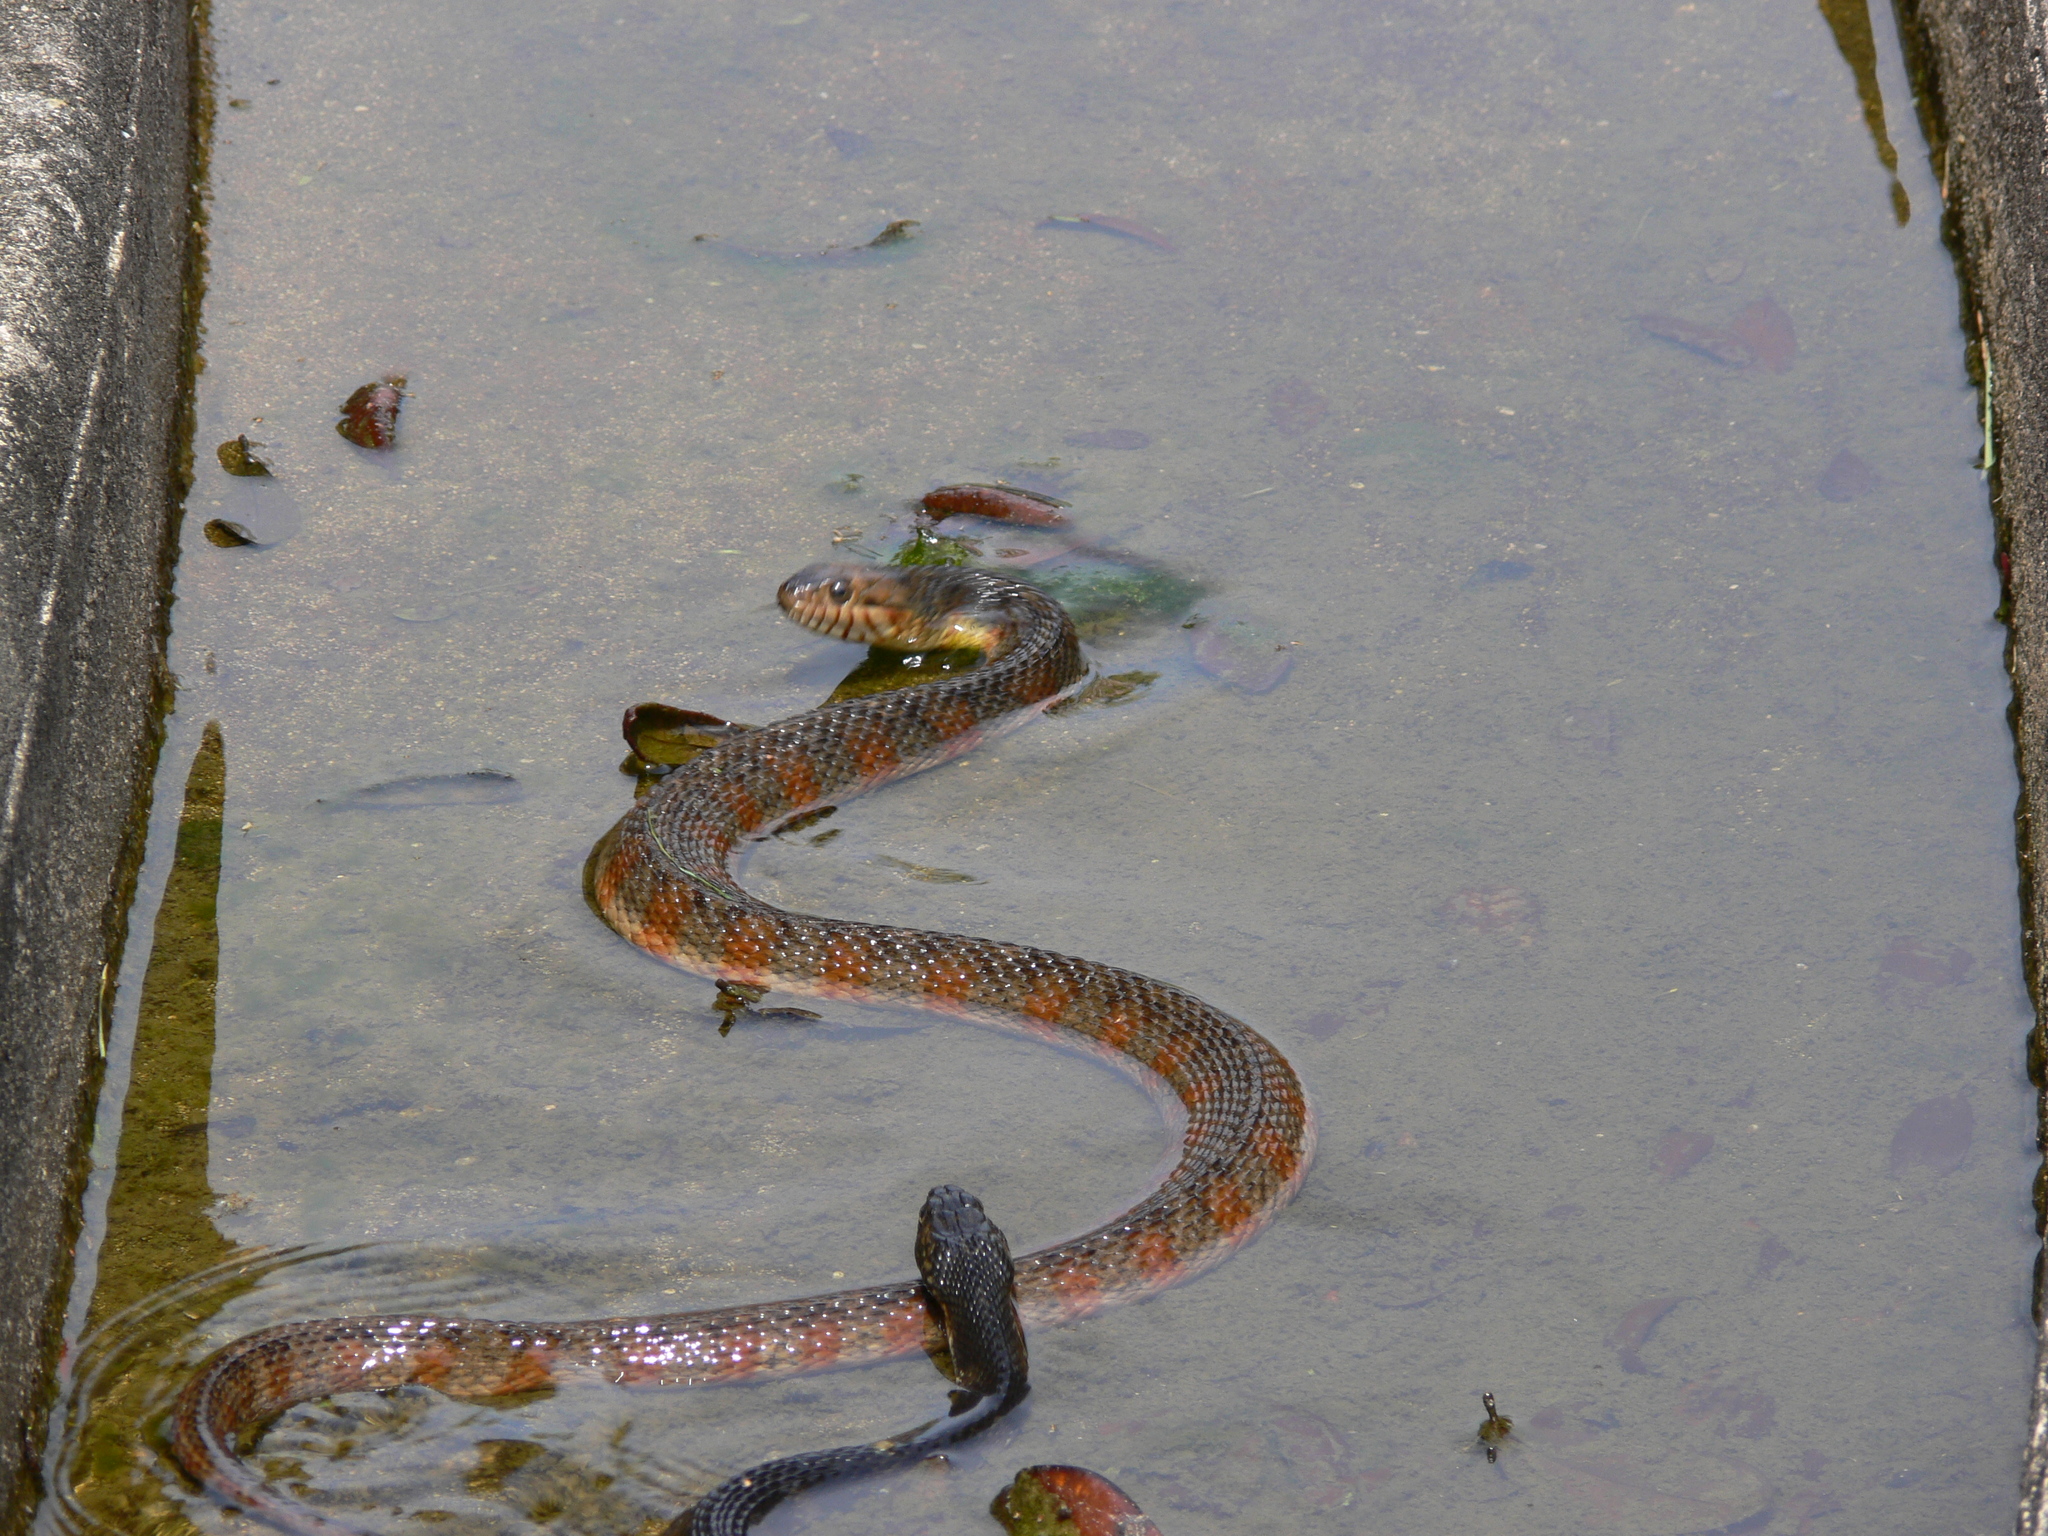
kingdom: Animalia
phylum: Chordata
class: Squamata
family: Colubridae
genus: Nerodia
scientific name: Nerodia fasciata
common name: Southern water snake
